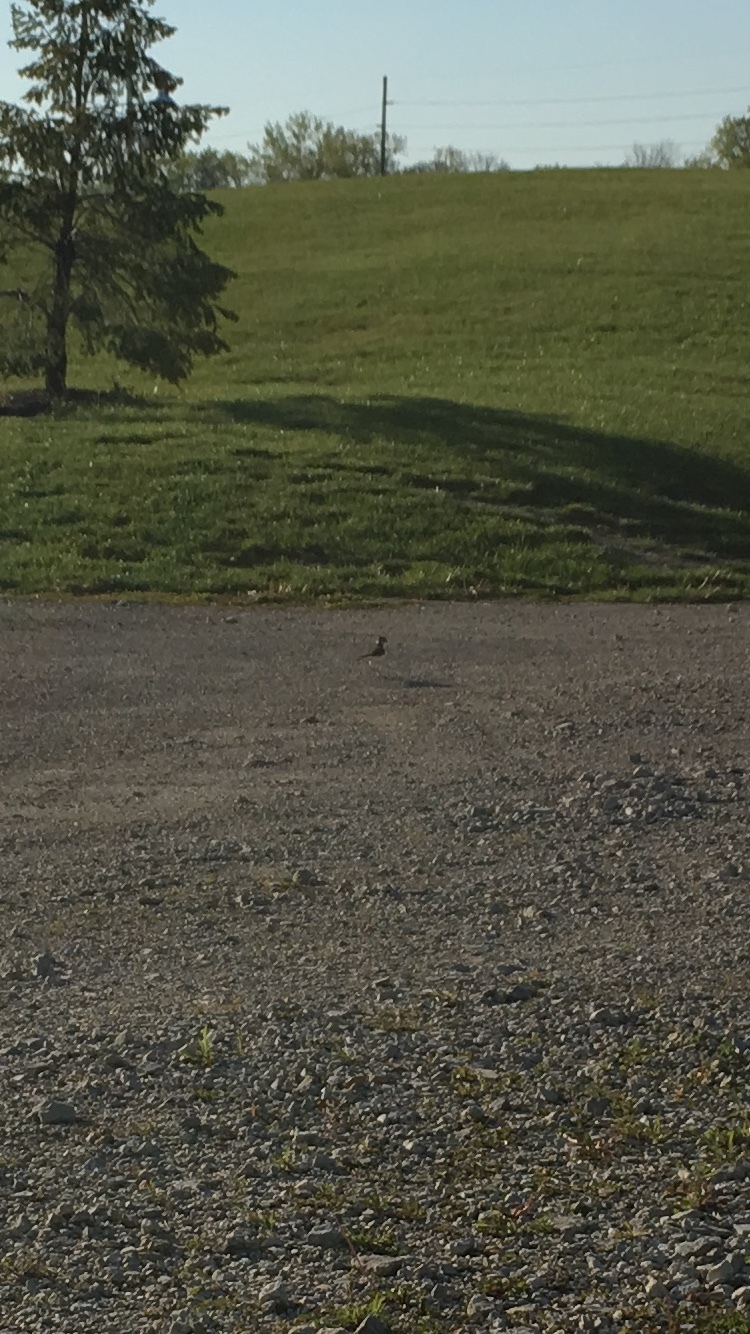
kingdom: Animalia
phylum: Chordata
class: Aves
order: Charadriiformes
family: Charadriidae
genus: Charadrius
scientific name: Charadrius vociferus
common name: Killdeer
